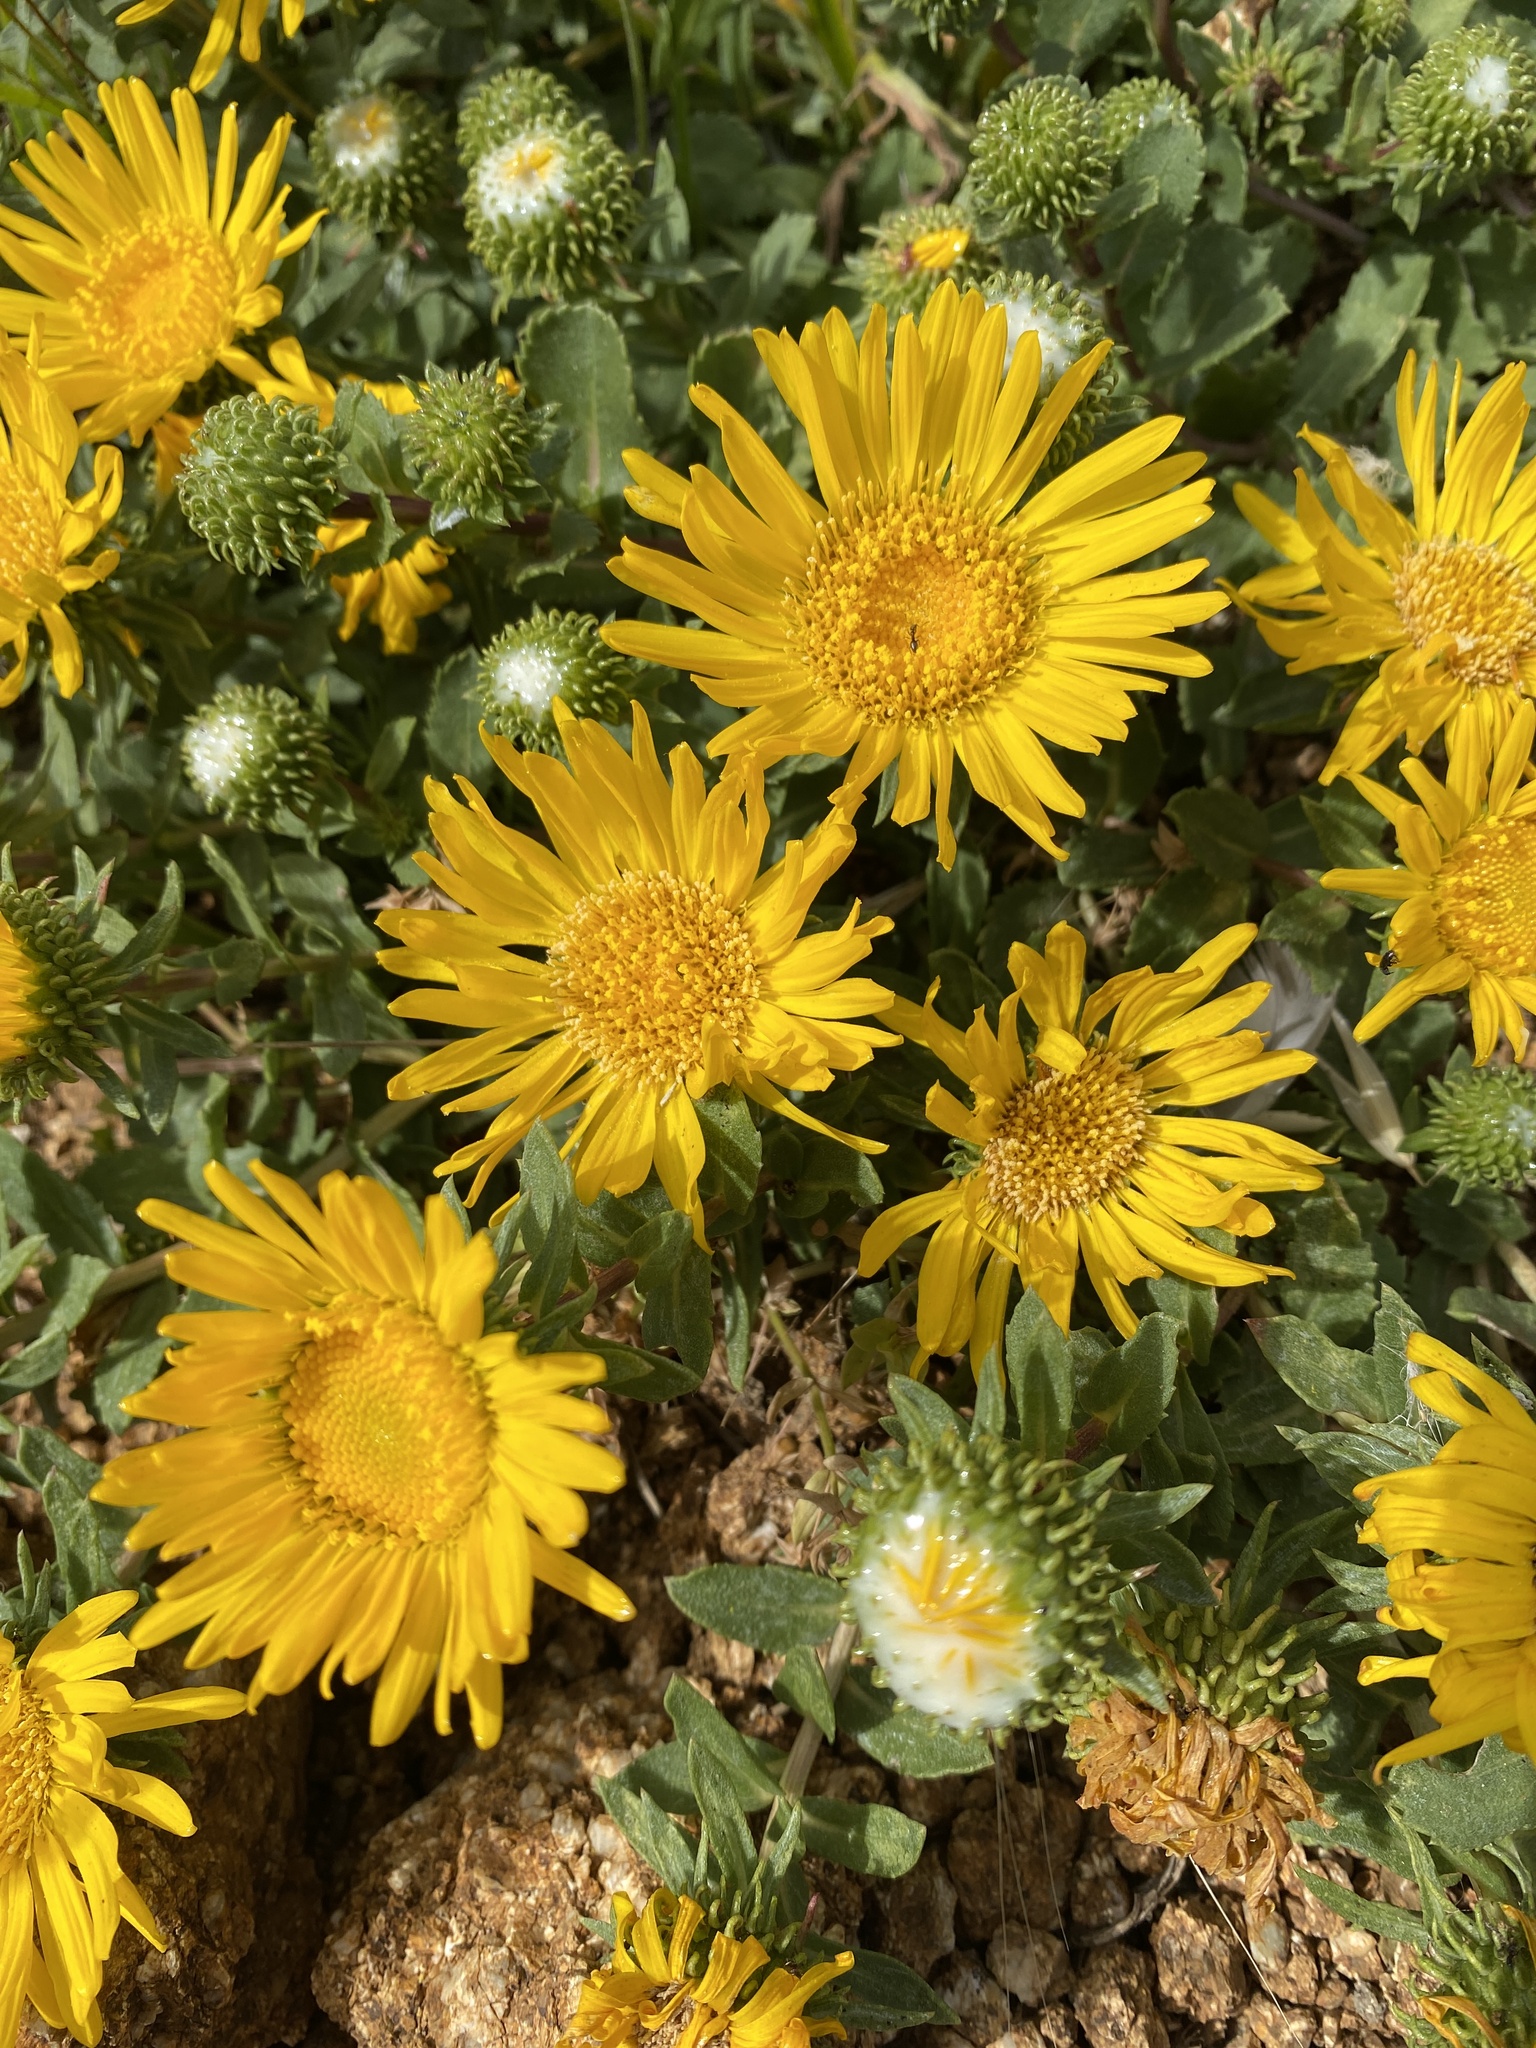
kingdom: Plantae
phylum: Tracheophyta
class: Magnoliopsida
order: Asterales
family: Asteraceae
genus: Grindelia
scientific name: Grindelia hirsutula
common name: Hairy gumweed
